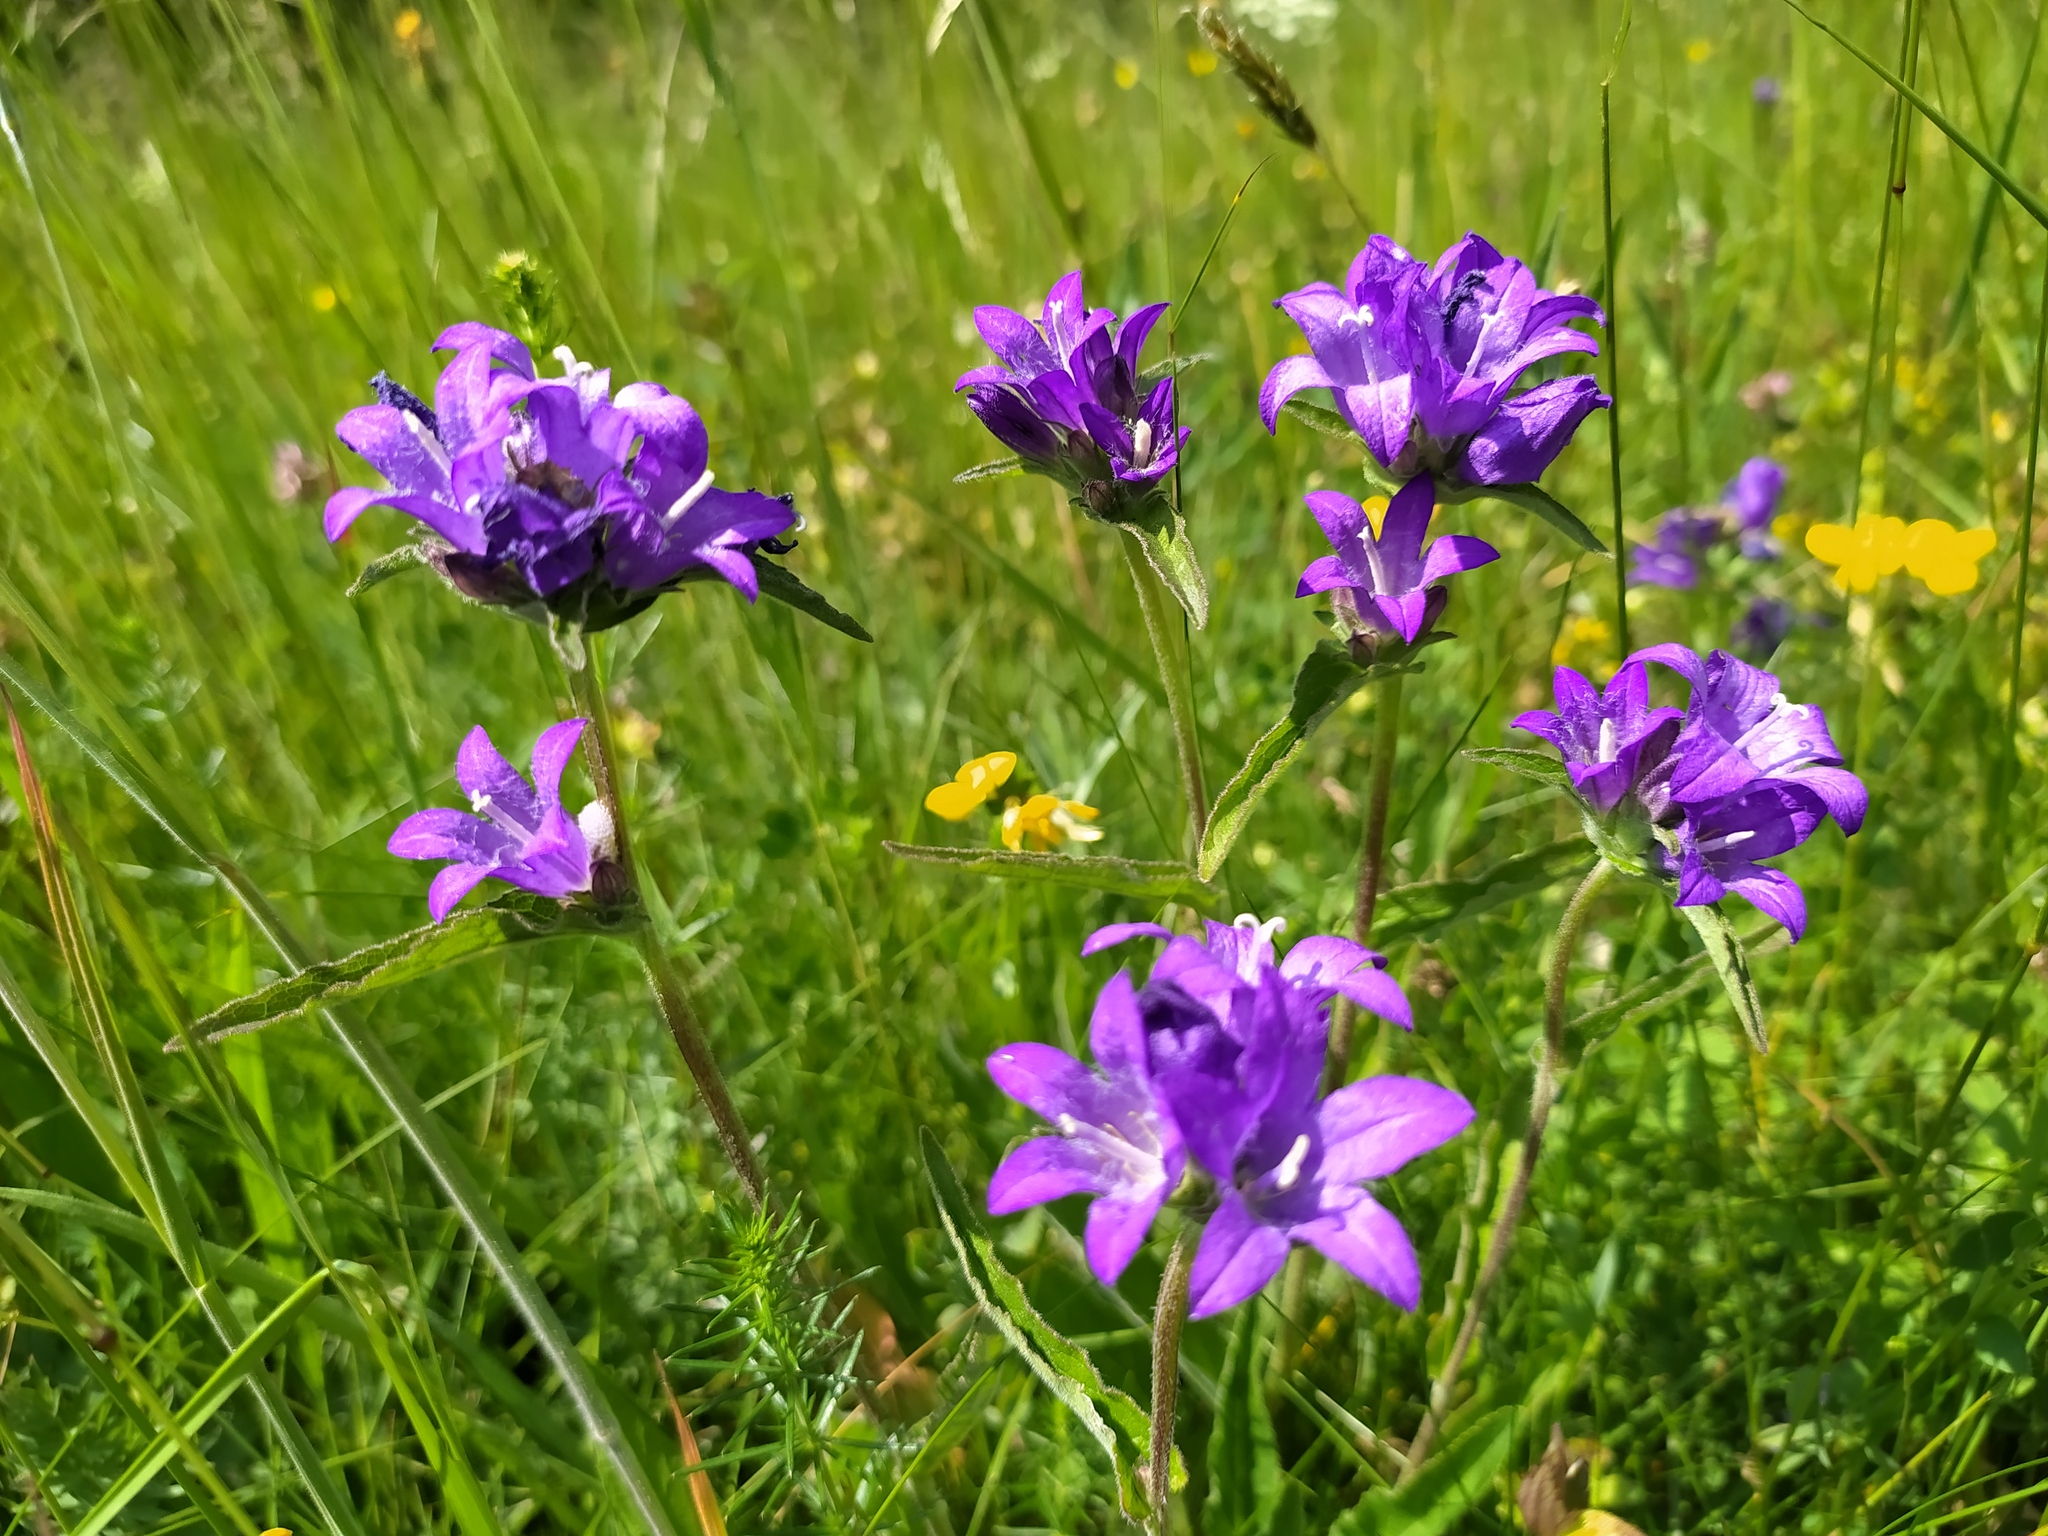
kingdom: Plantae
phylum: Tracheophyta
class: Magnoliopsida
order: Asterales
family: Campanulaceae
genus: Campanula
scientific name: Campanula glomerata
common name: Clustered bellflower
